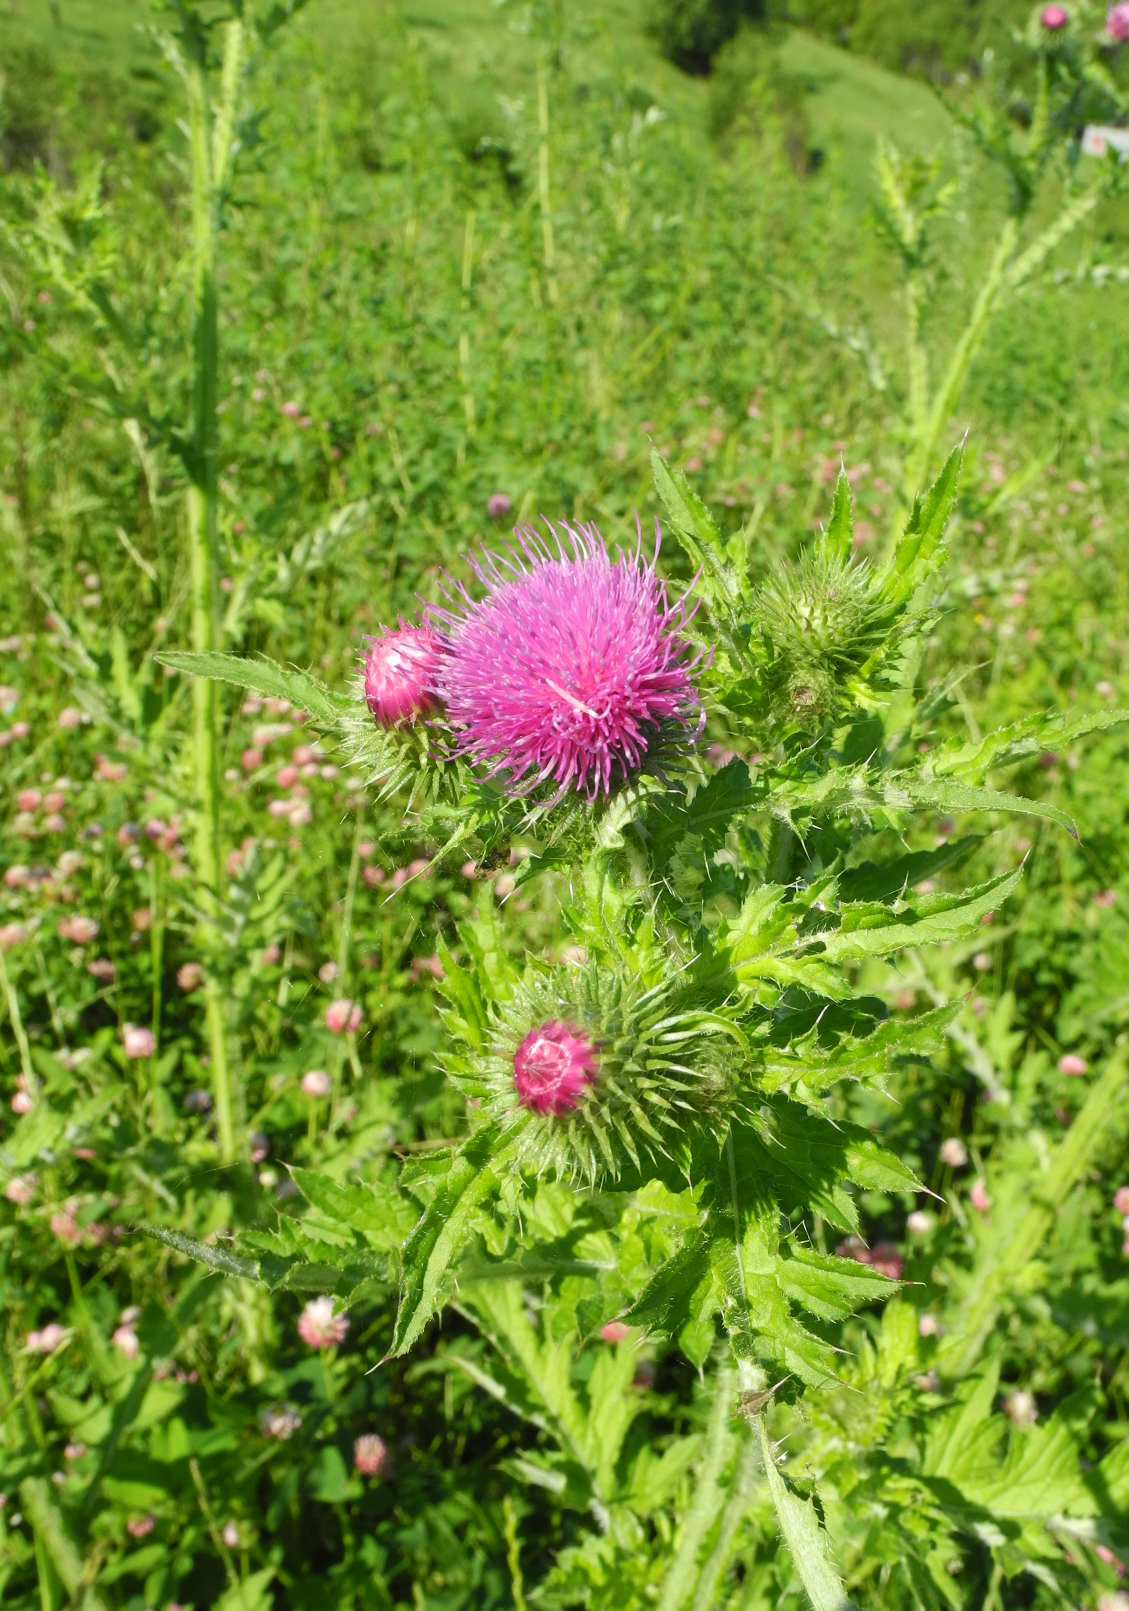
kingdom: Plantae
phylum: Tracheophyta
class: Magnoliopsida
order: Asterales
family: Asteraceae
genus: Carduus
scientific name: Carduus crispus
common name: Welted thistle
